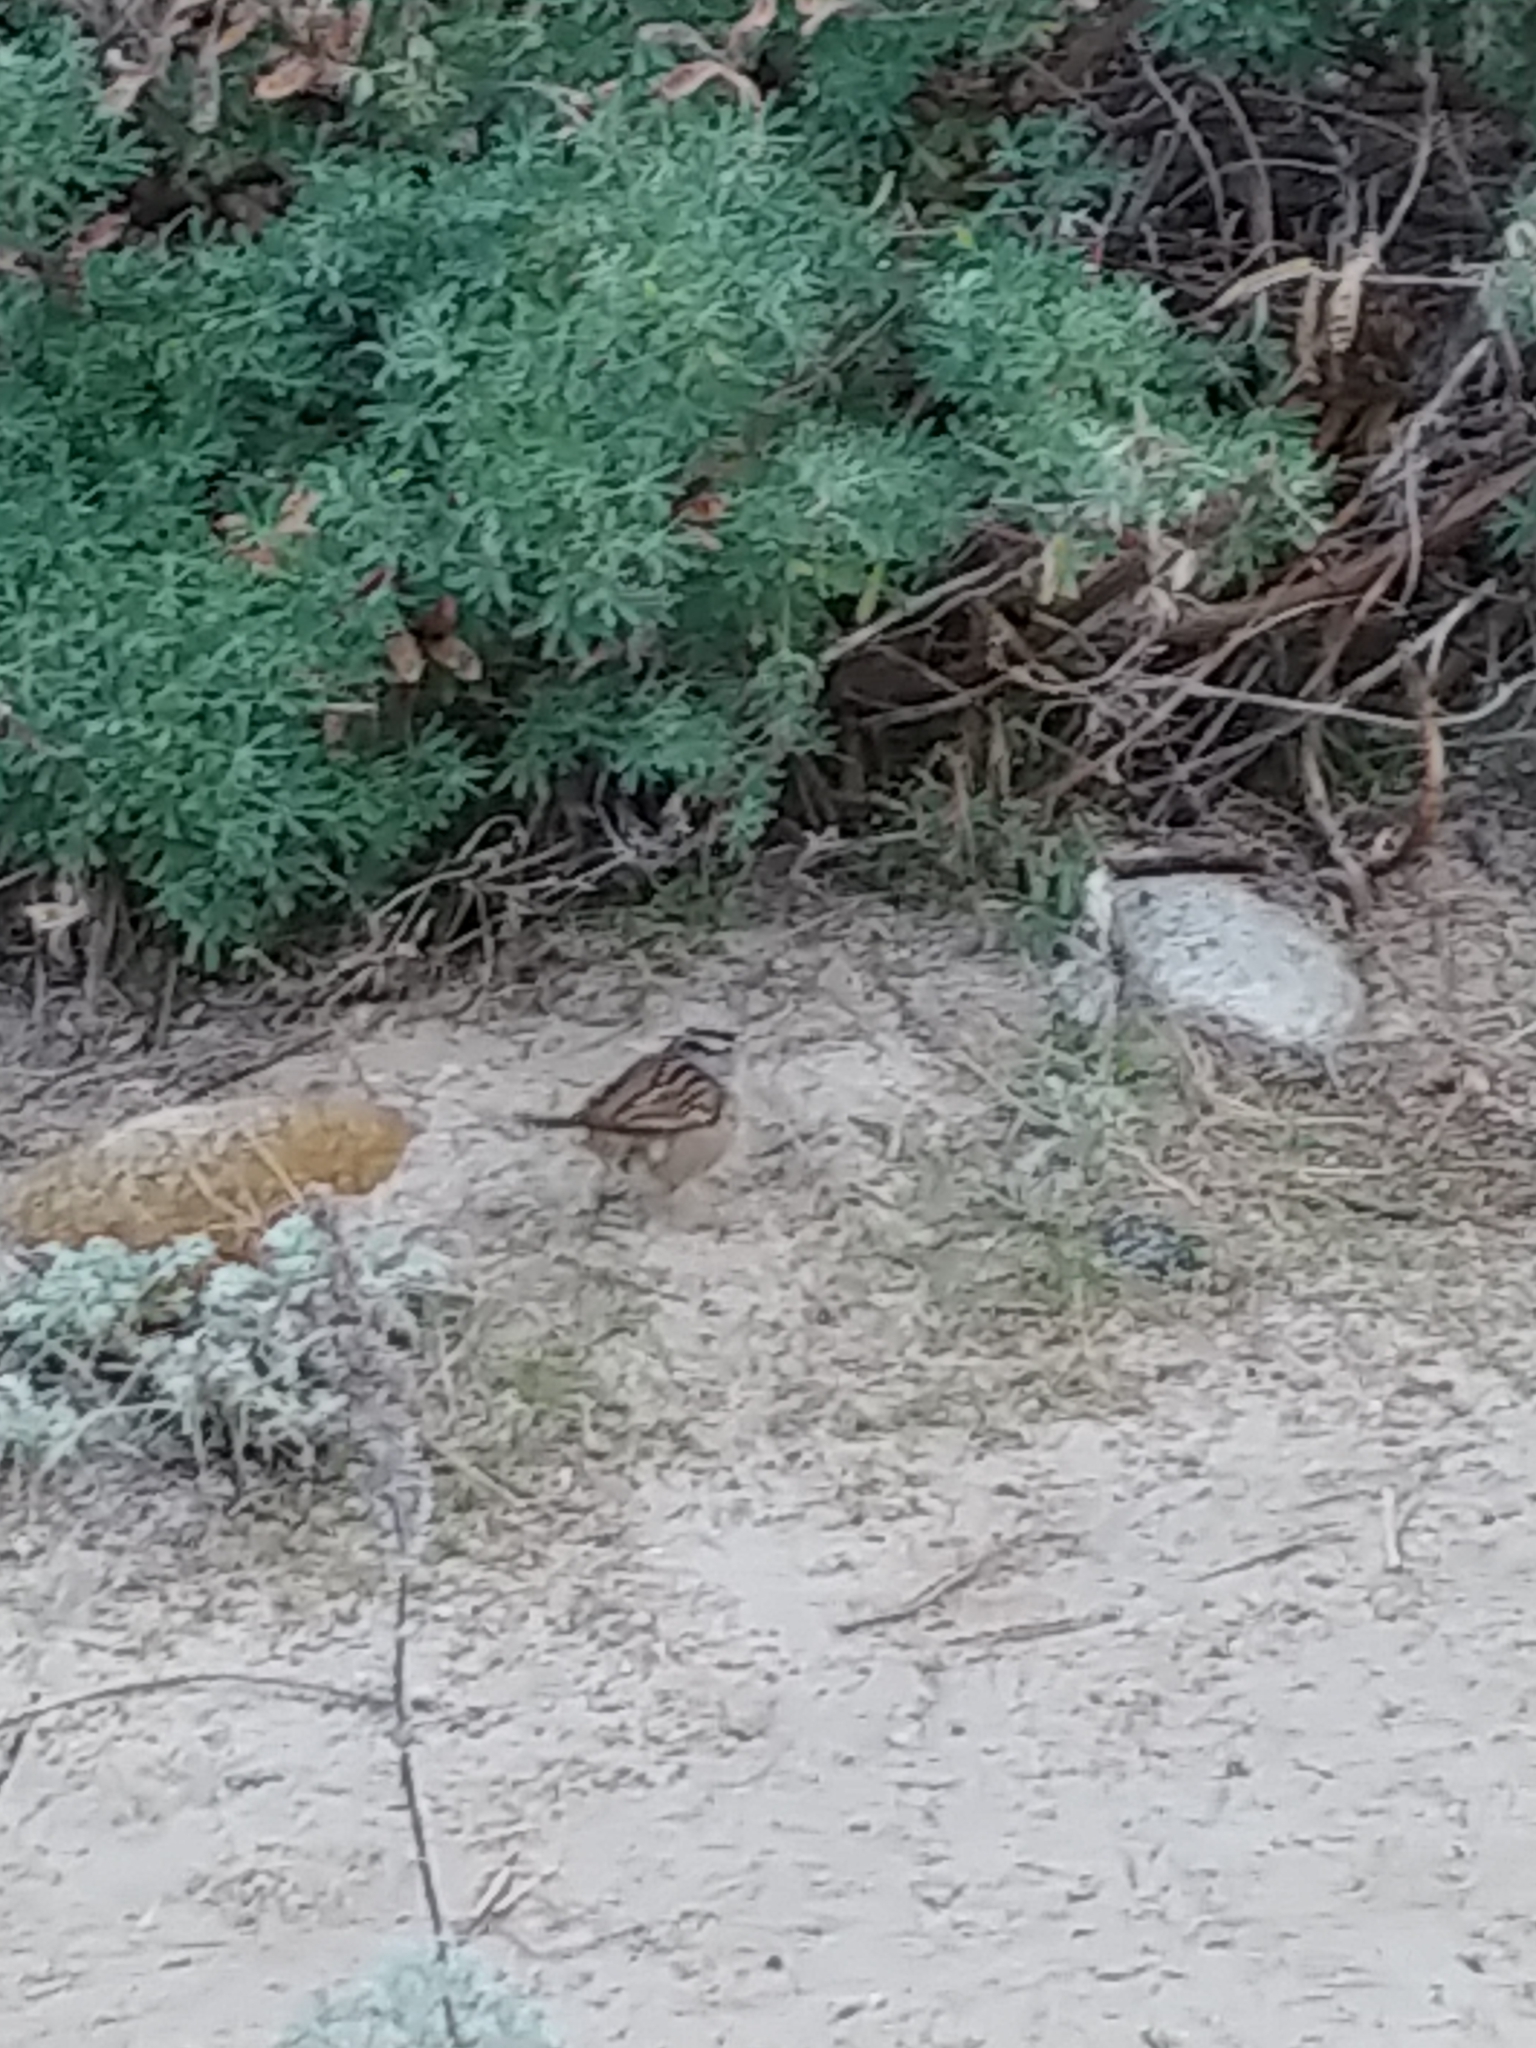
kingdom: Animalia
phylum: Chordata
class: Aves
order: Passeriformes
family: Passerellidae
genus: Zonotrichia
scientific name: Zonotrichia leucophrys
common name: White-crowned sparrow
